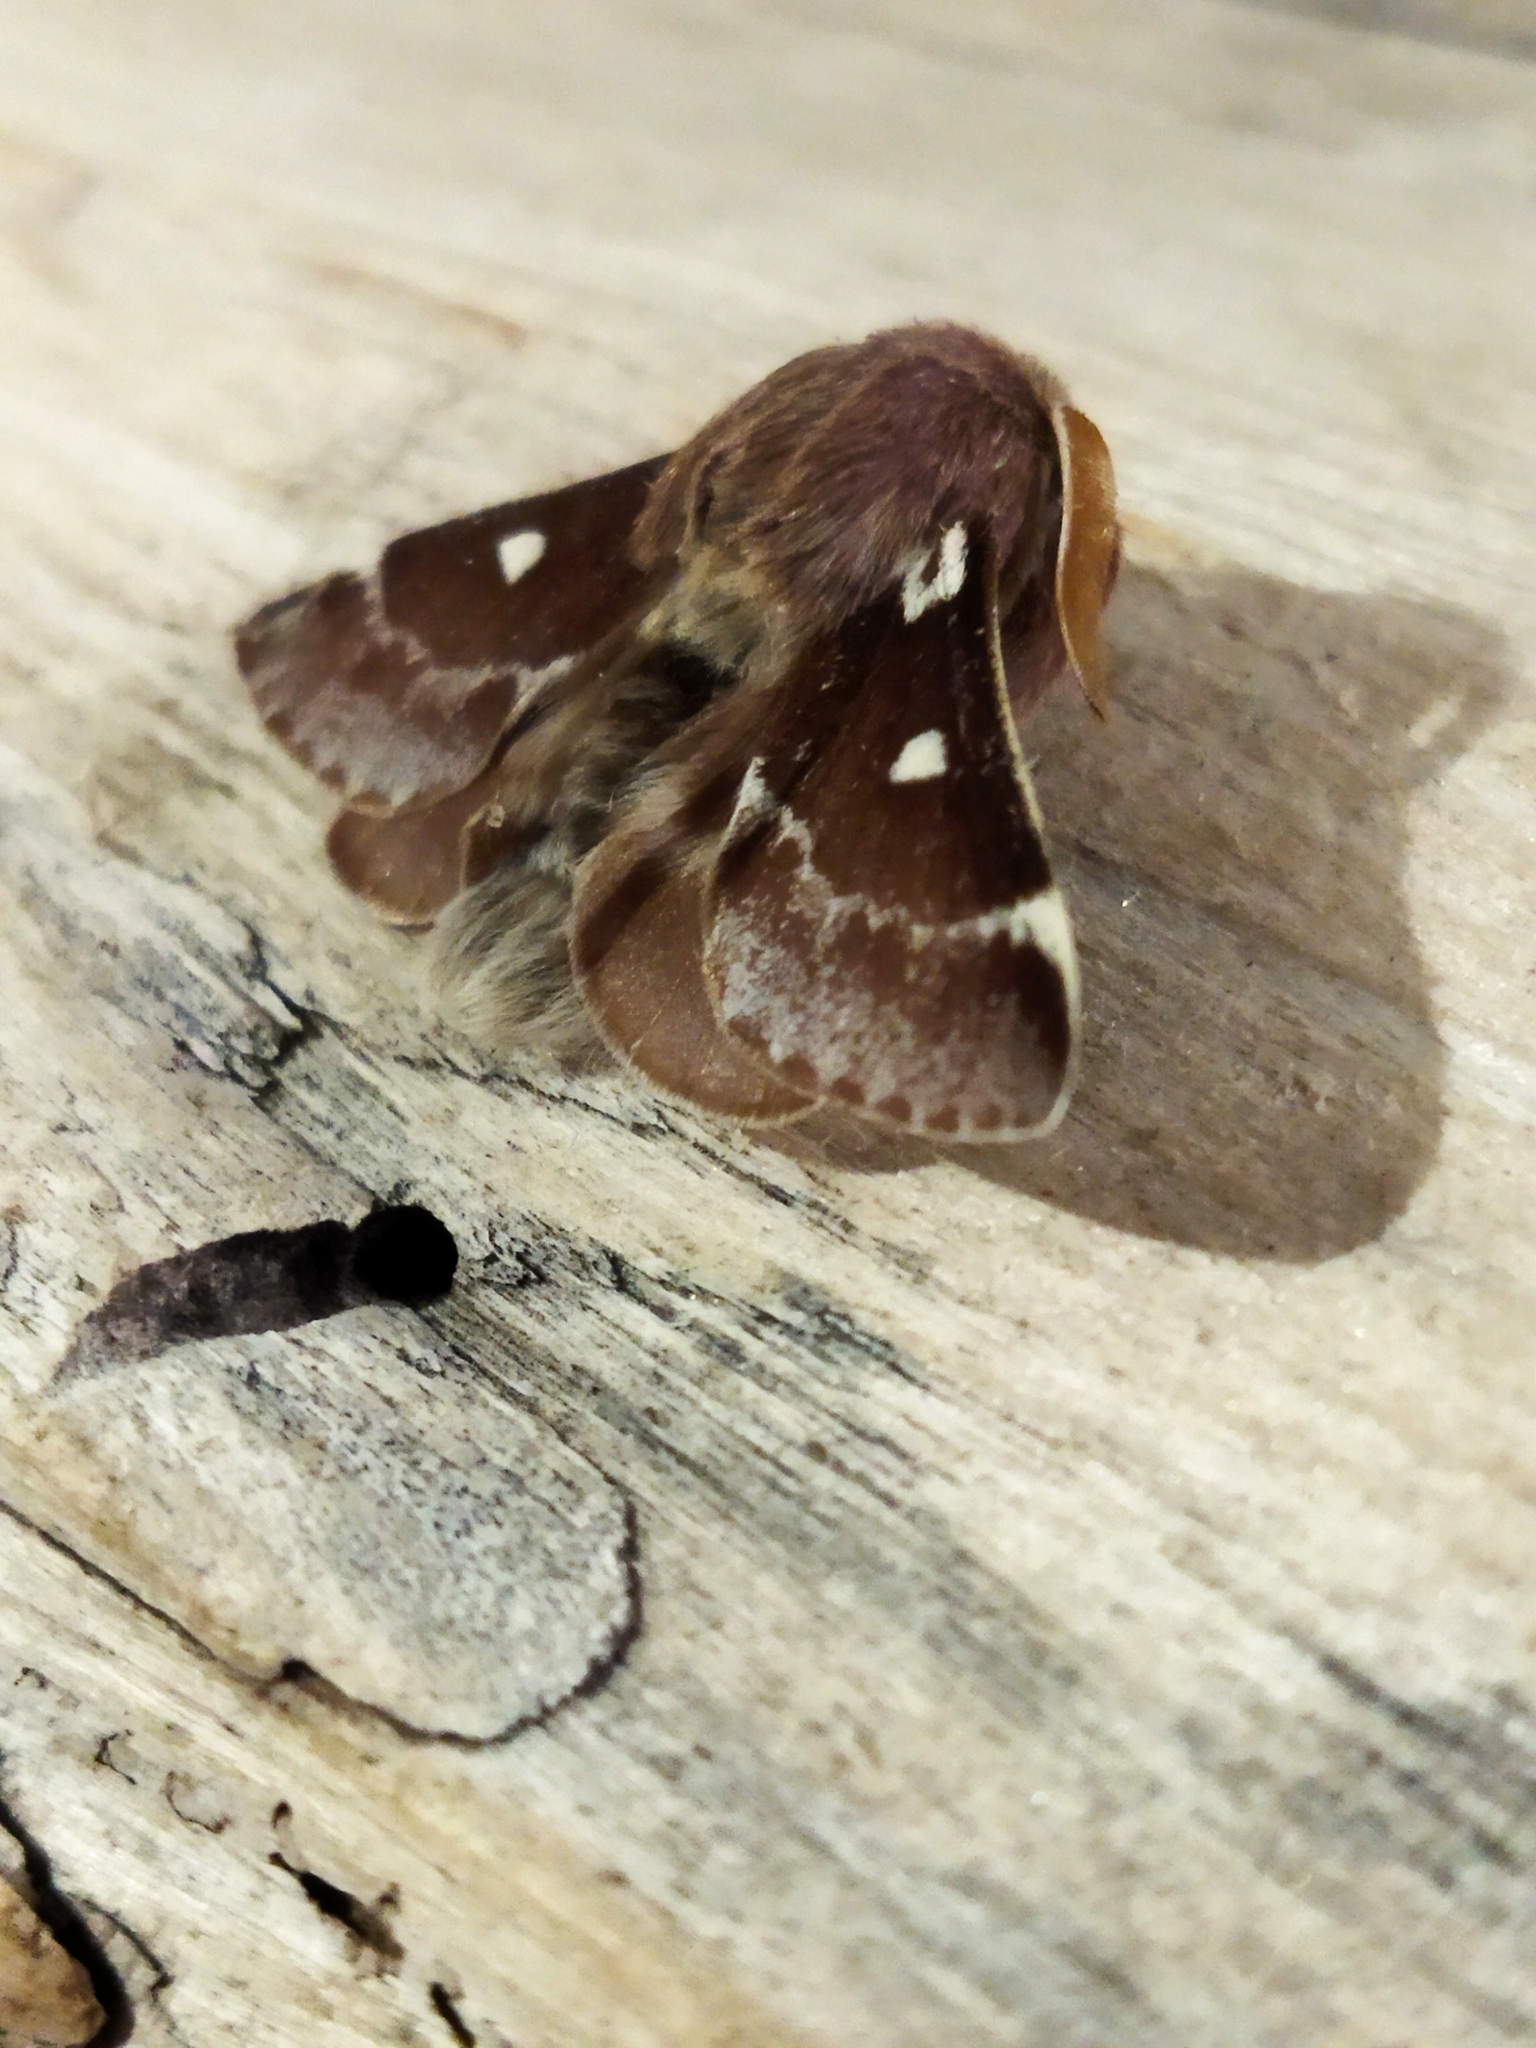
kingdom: Animalia
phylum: Arthropoda
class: Insecta
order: Lepidoptera
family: Lasiocampidae
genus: Eriogaster
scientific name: Eriogaster lanestris
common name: Small eggar
